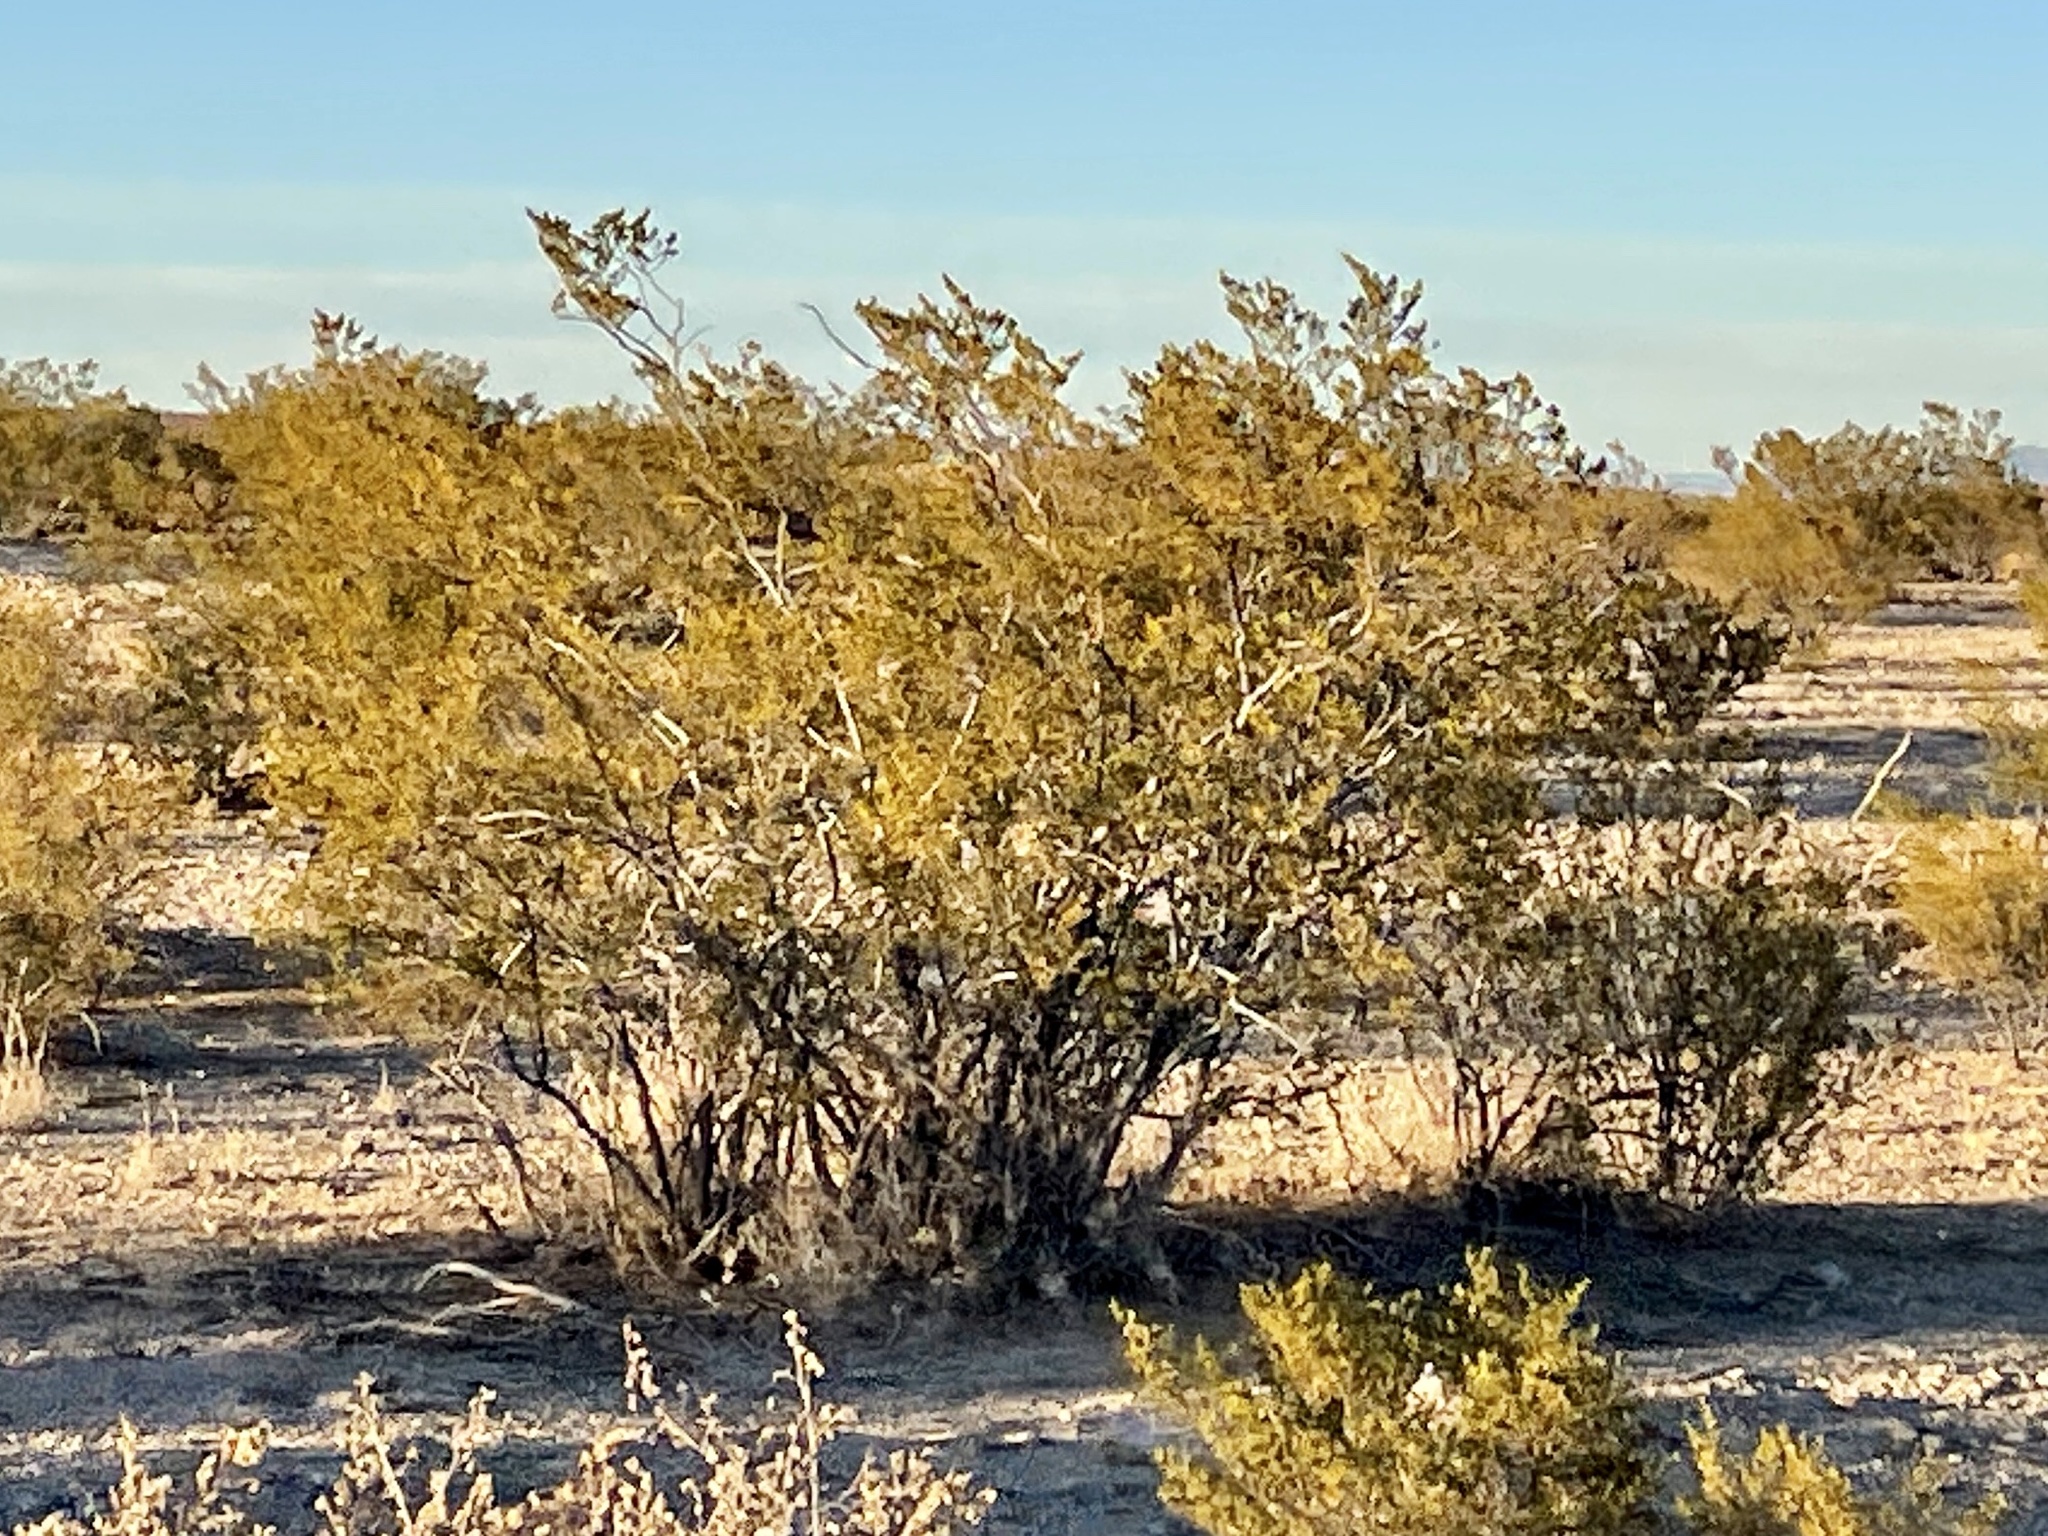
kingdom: Plantae
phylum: Tracheophyta
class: Magnoliopsida
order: Zygophyllales
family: Zygophyllaceae
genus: Larrea
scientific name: Larrea tridentata
